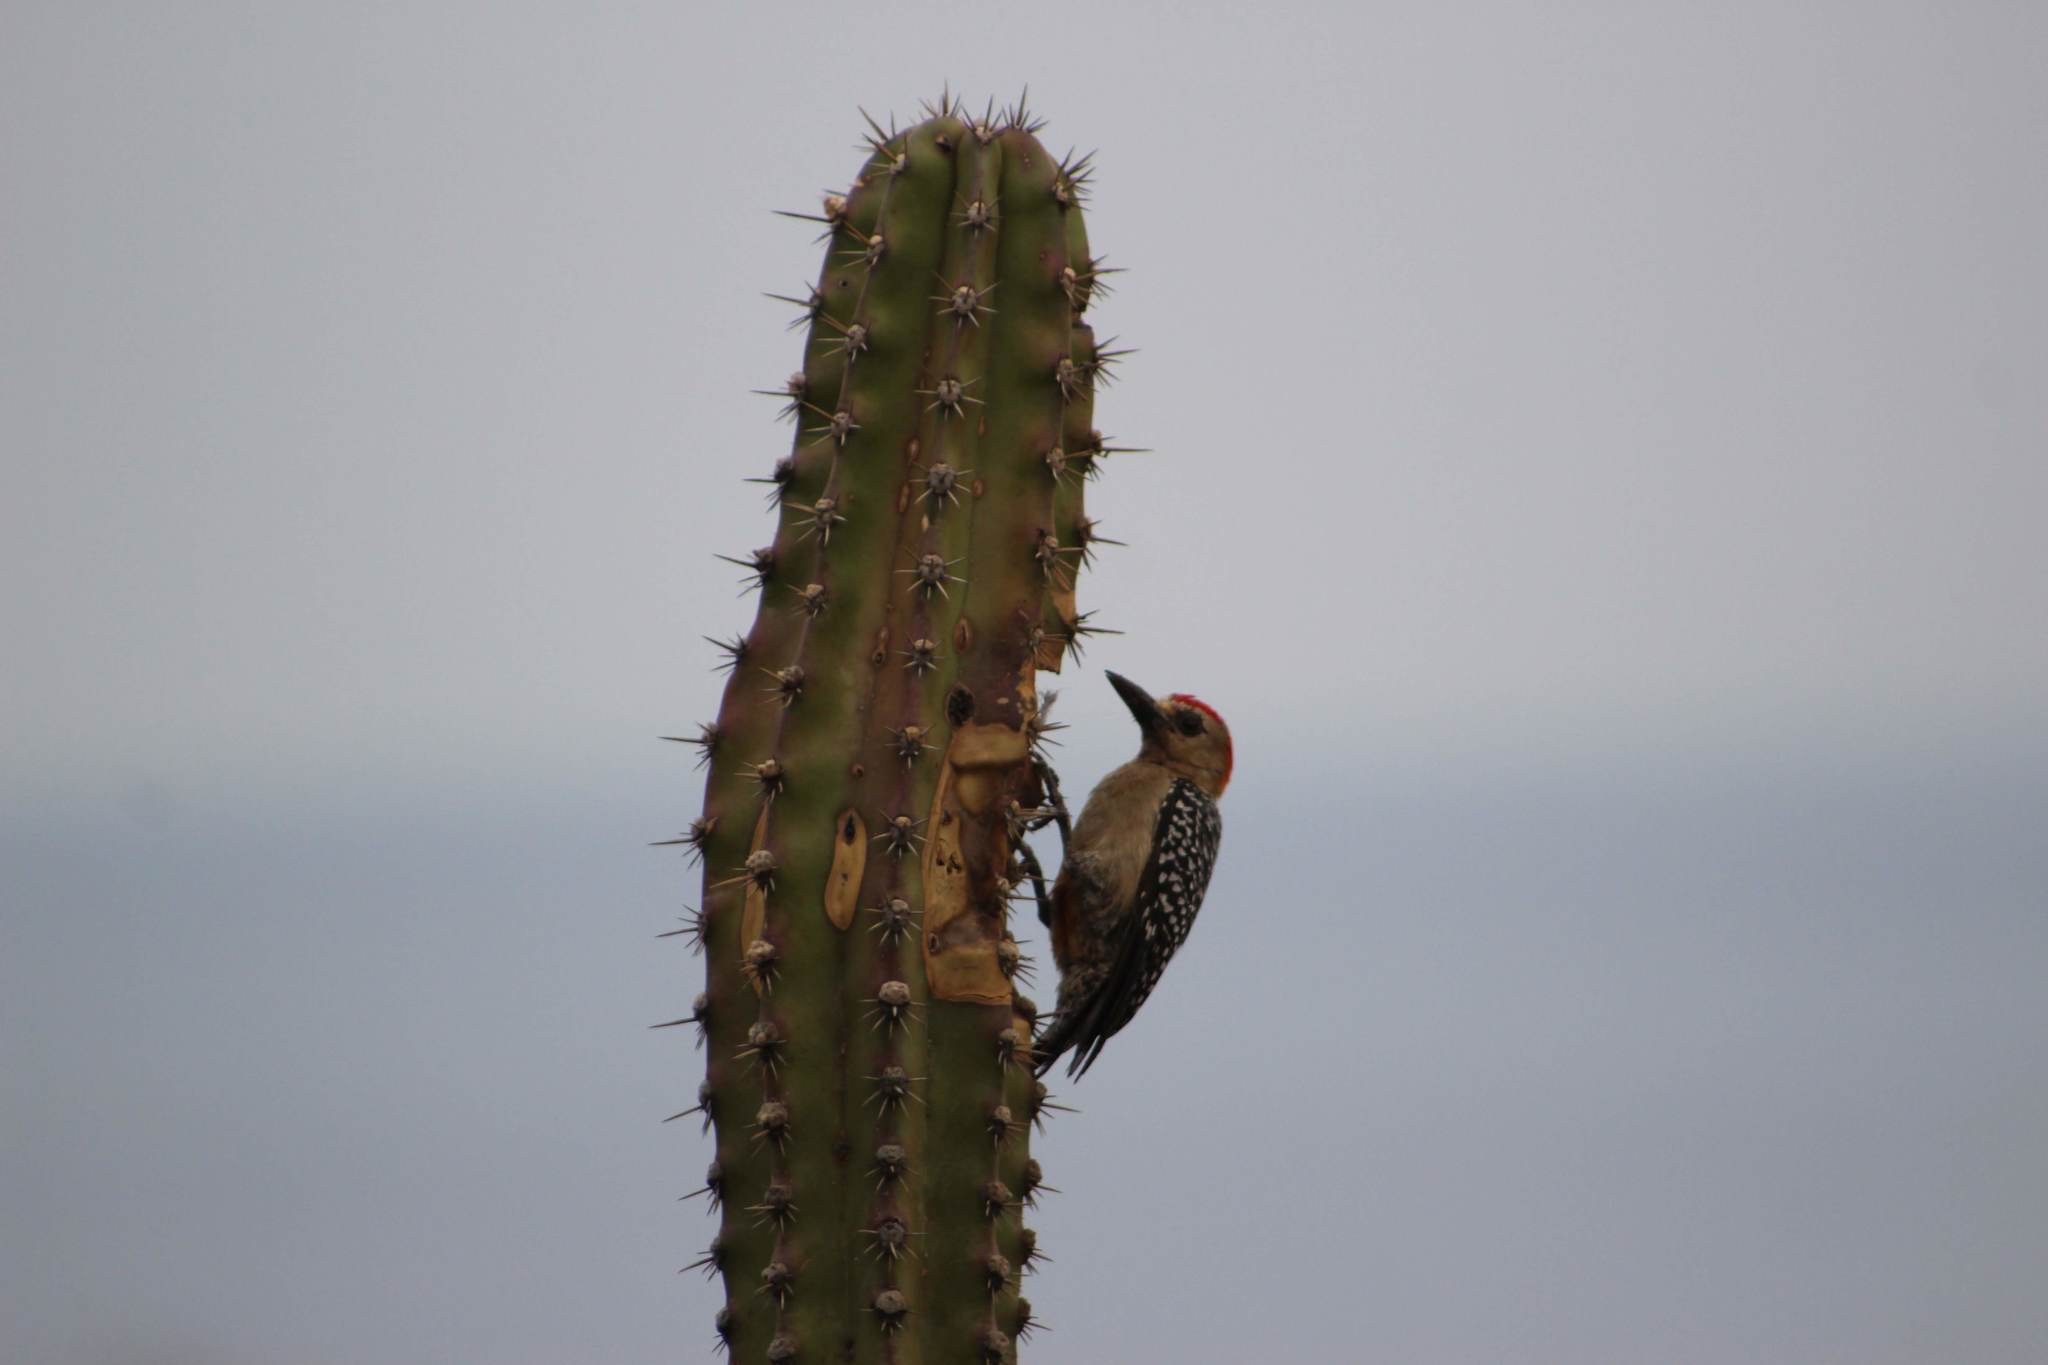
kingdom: Animalia
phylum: Chordata
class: Aves
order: Piciformes
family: Picidae
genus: Melanerpes
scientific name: Melanerpes rubricapillus
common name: Red-crowned woodpecker
